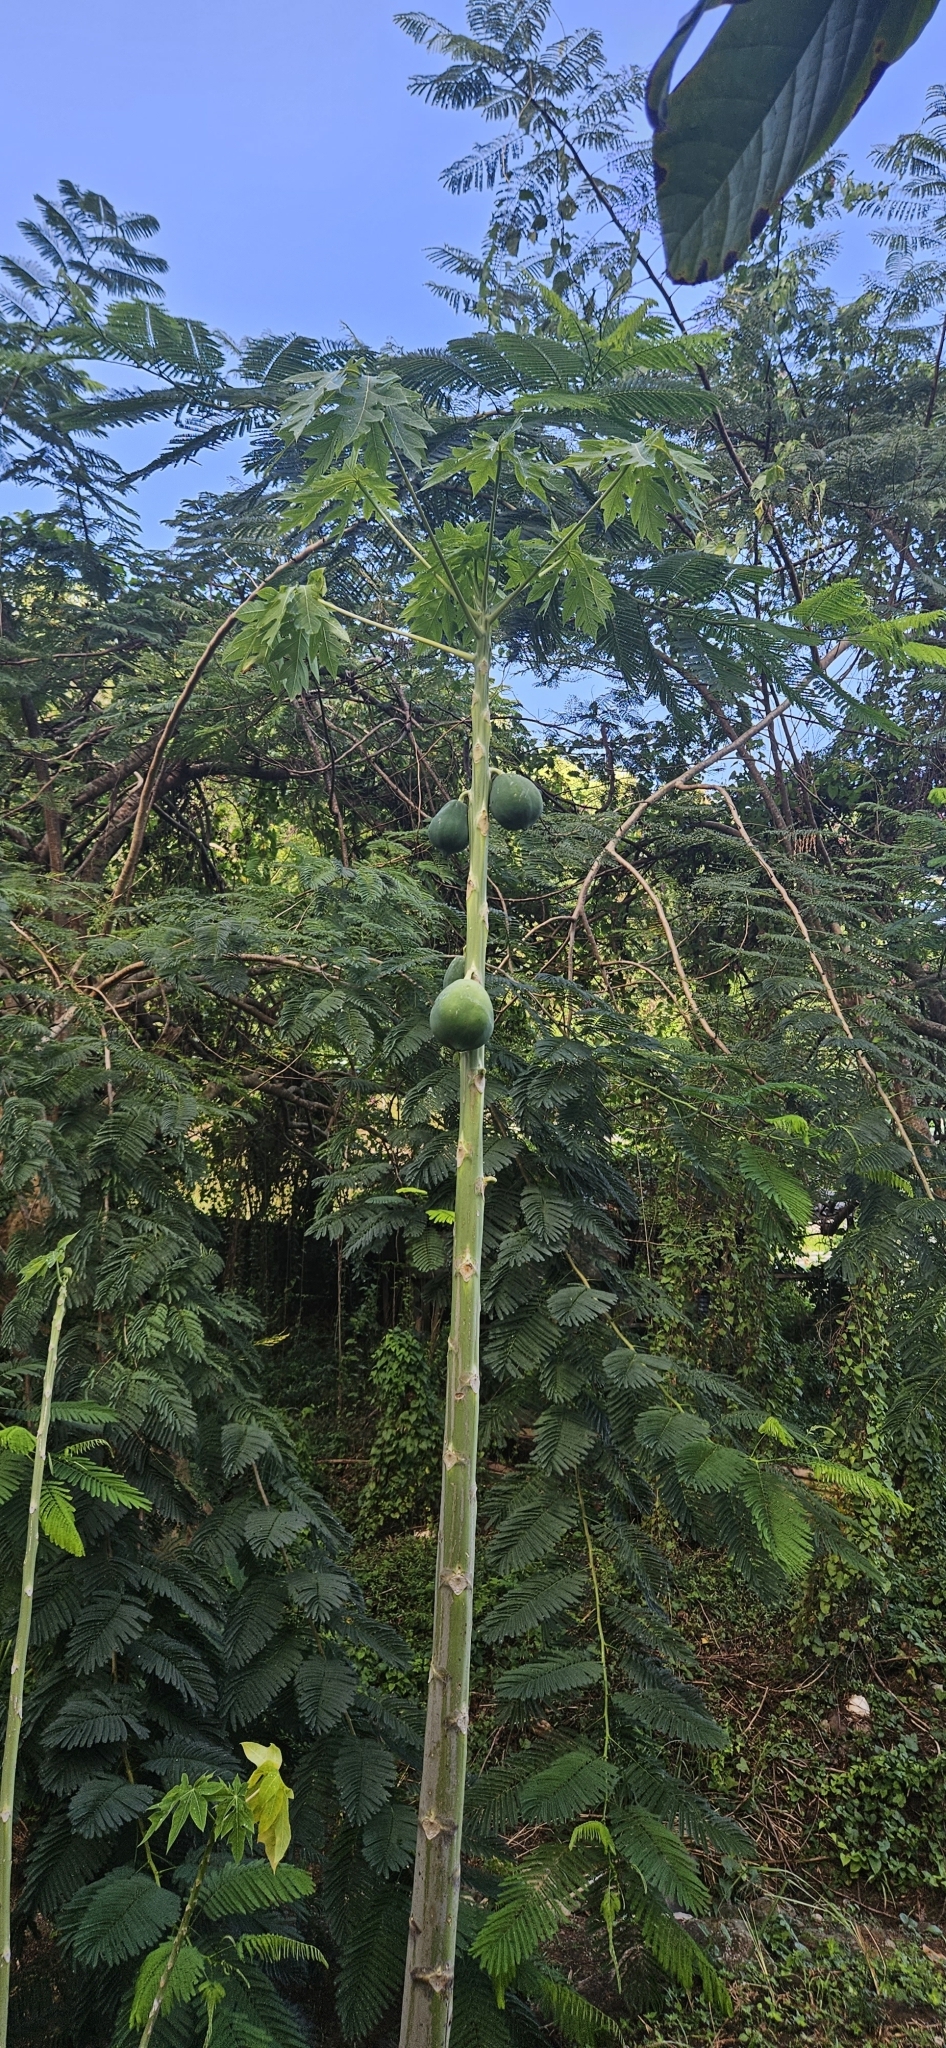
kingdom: Plantae
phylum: Tracheophyta
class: Magnoliopsida
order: Brassicales
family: Caricaceae
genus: Carica
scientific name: Carica papaya
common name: Papaya
